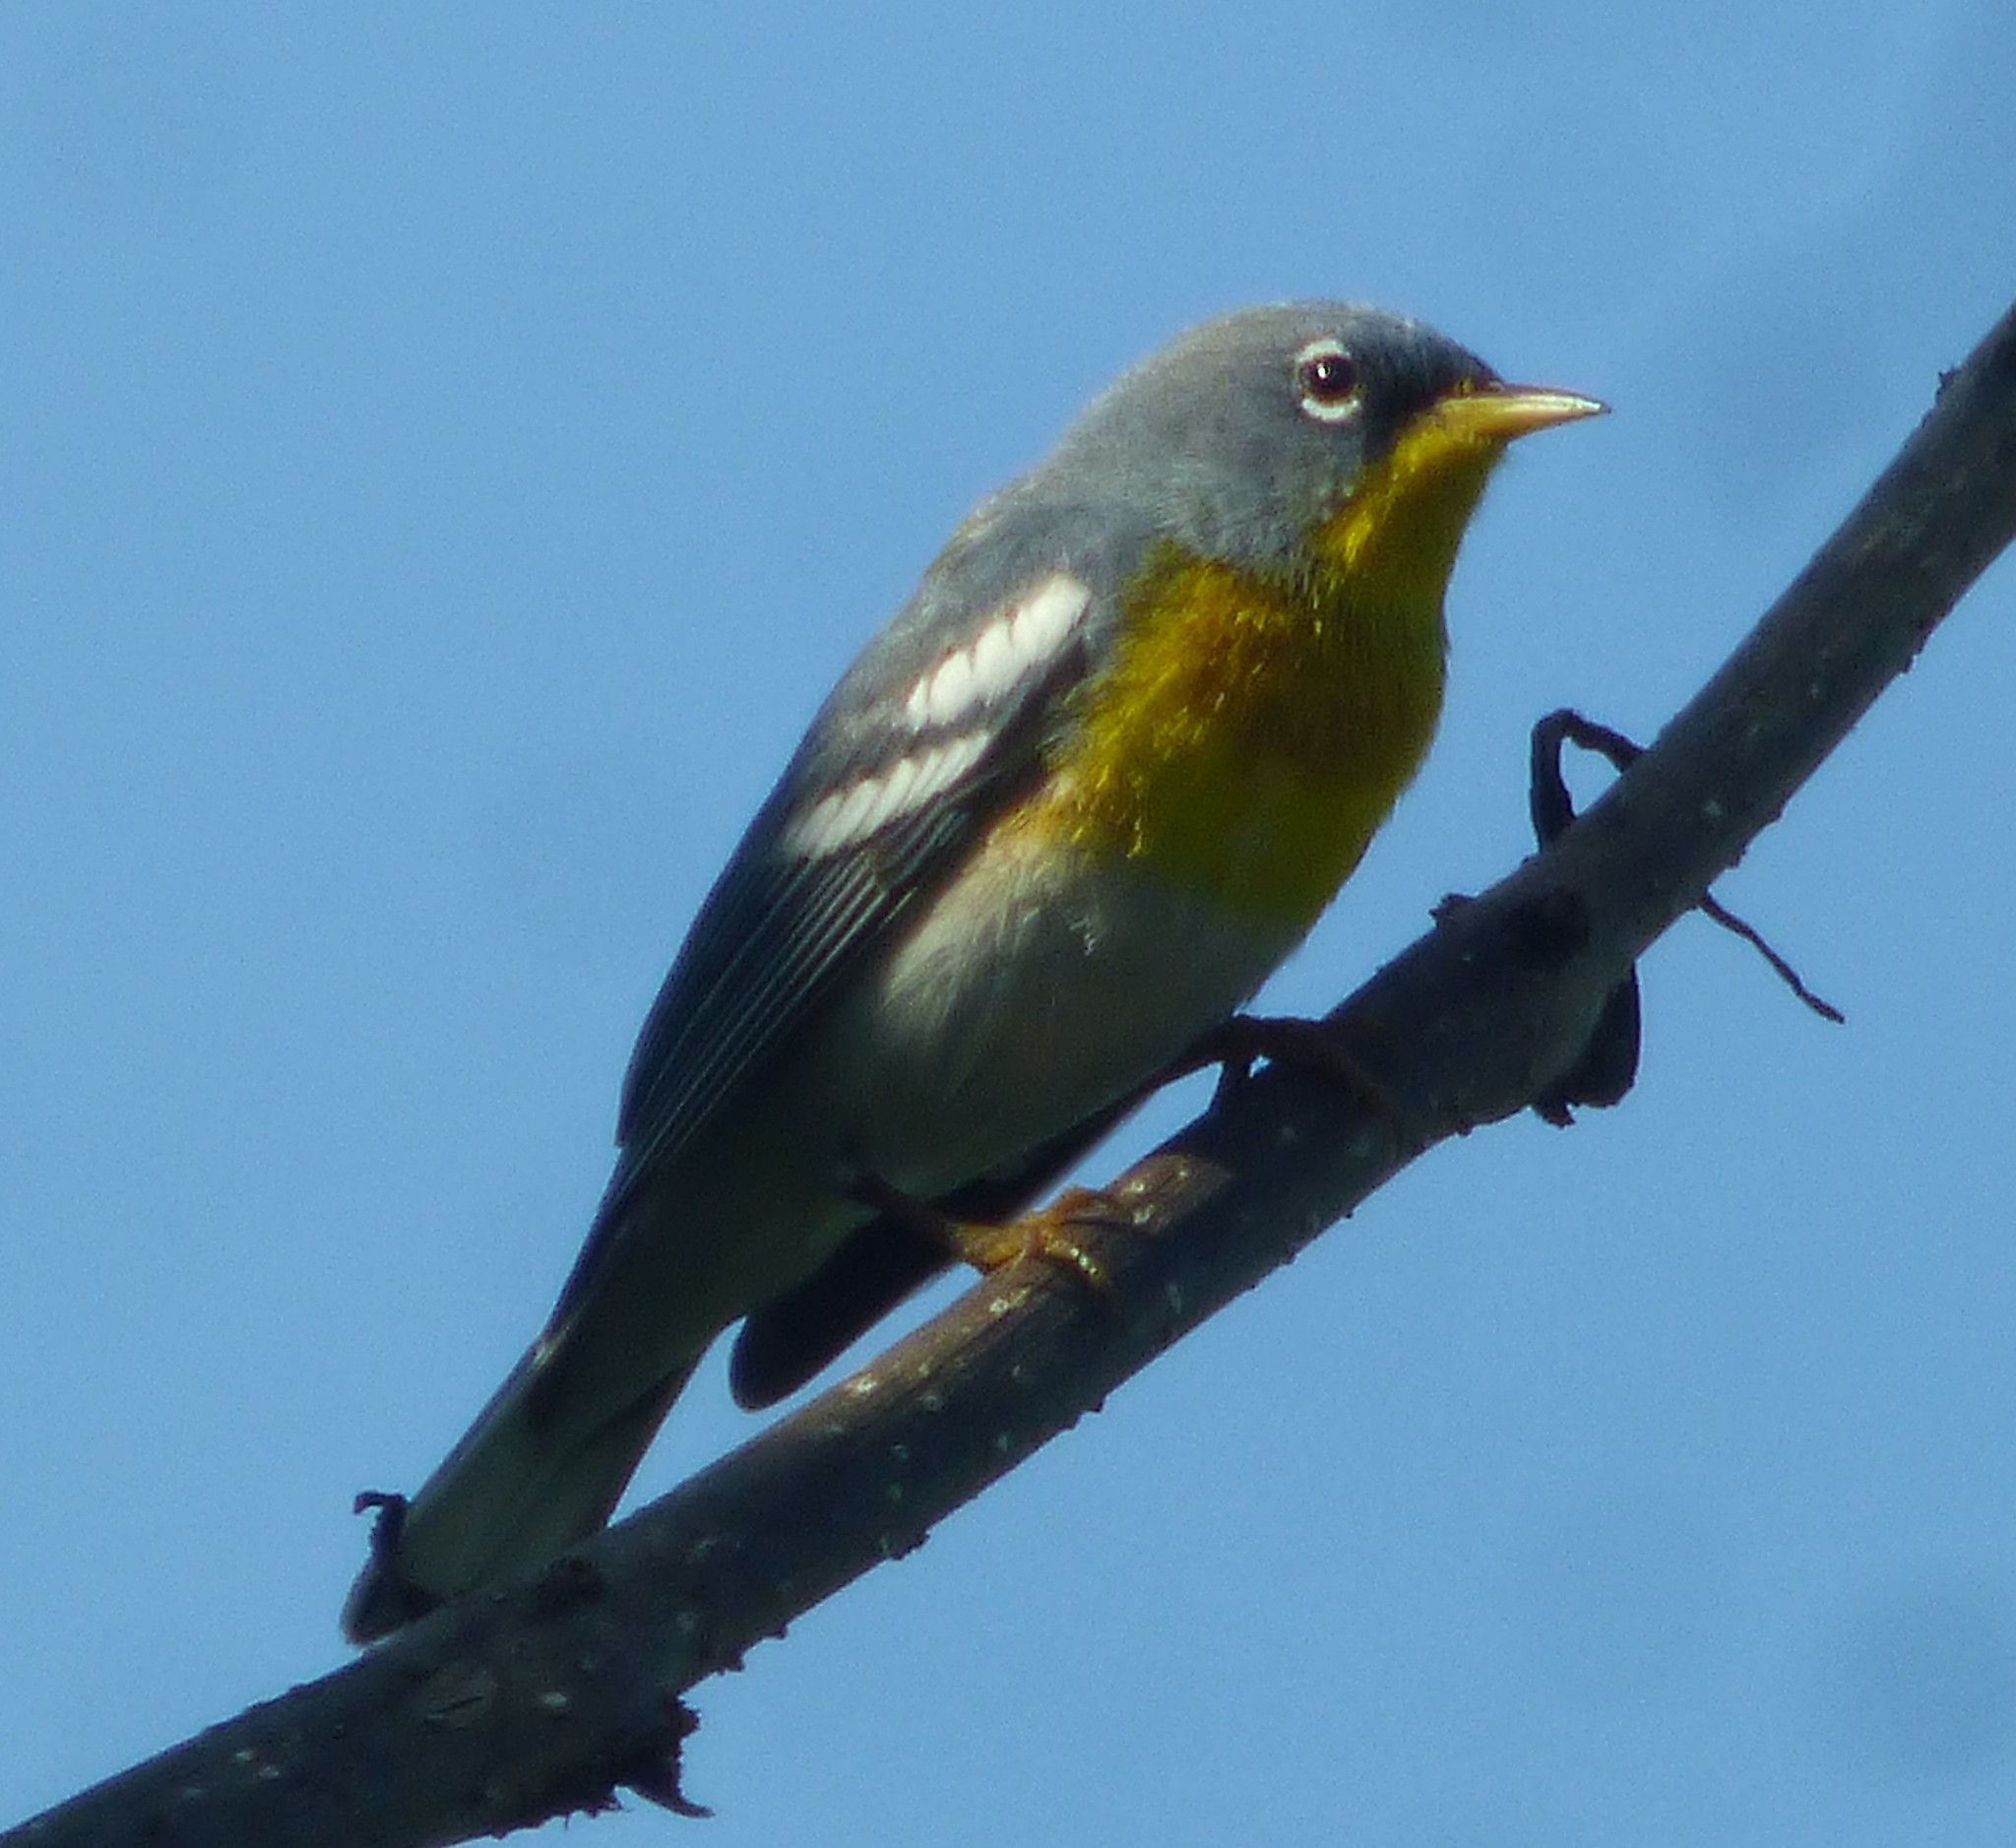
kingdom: Animalia
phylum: Chordata
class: Aves
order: Passeriformes
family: Parulidae
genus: Setophaga
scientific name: Setophaga americana
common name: Northern parula
